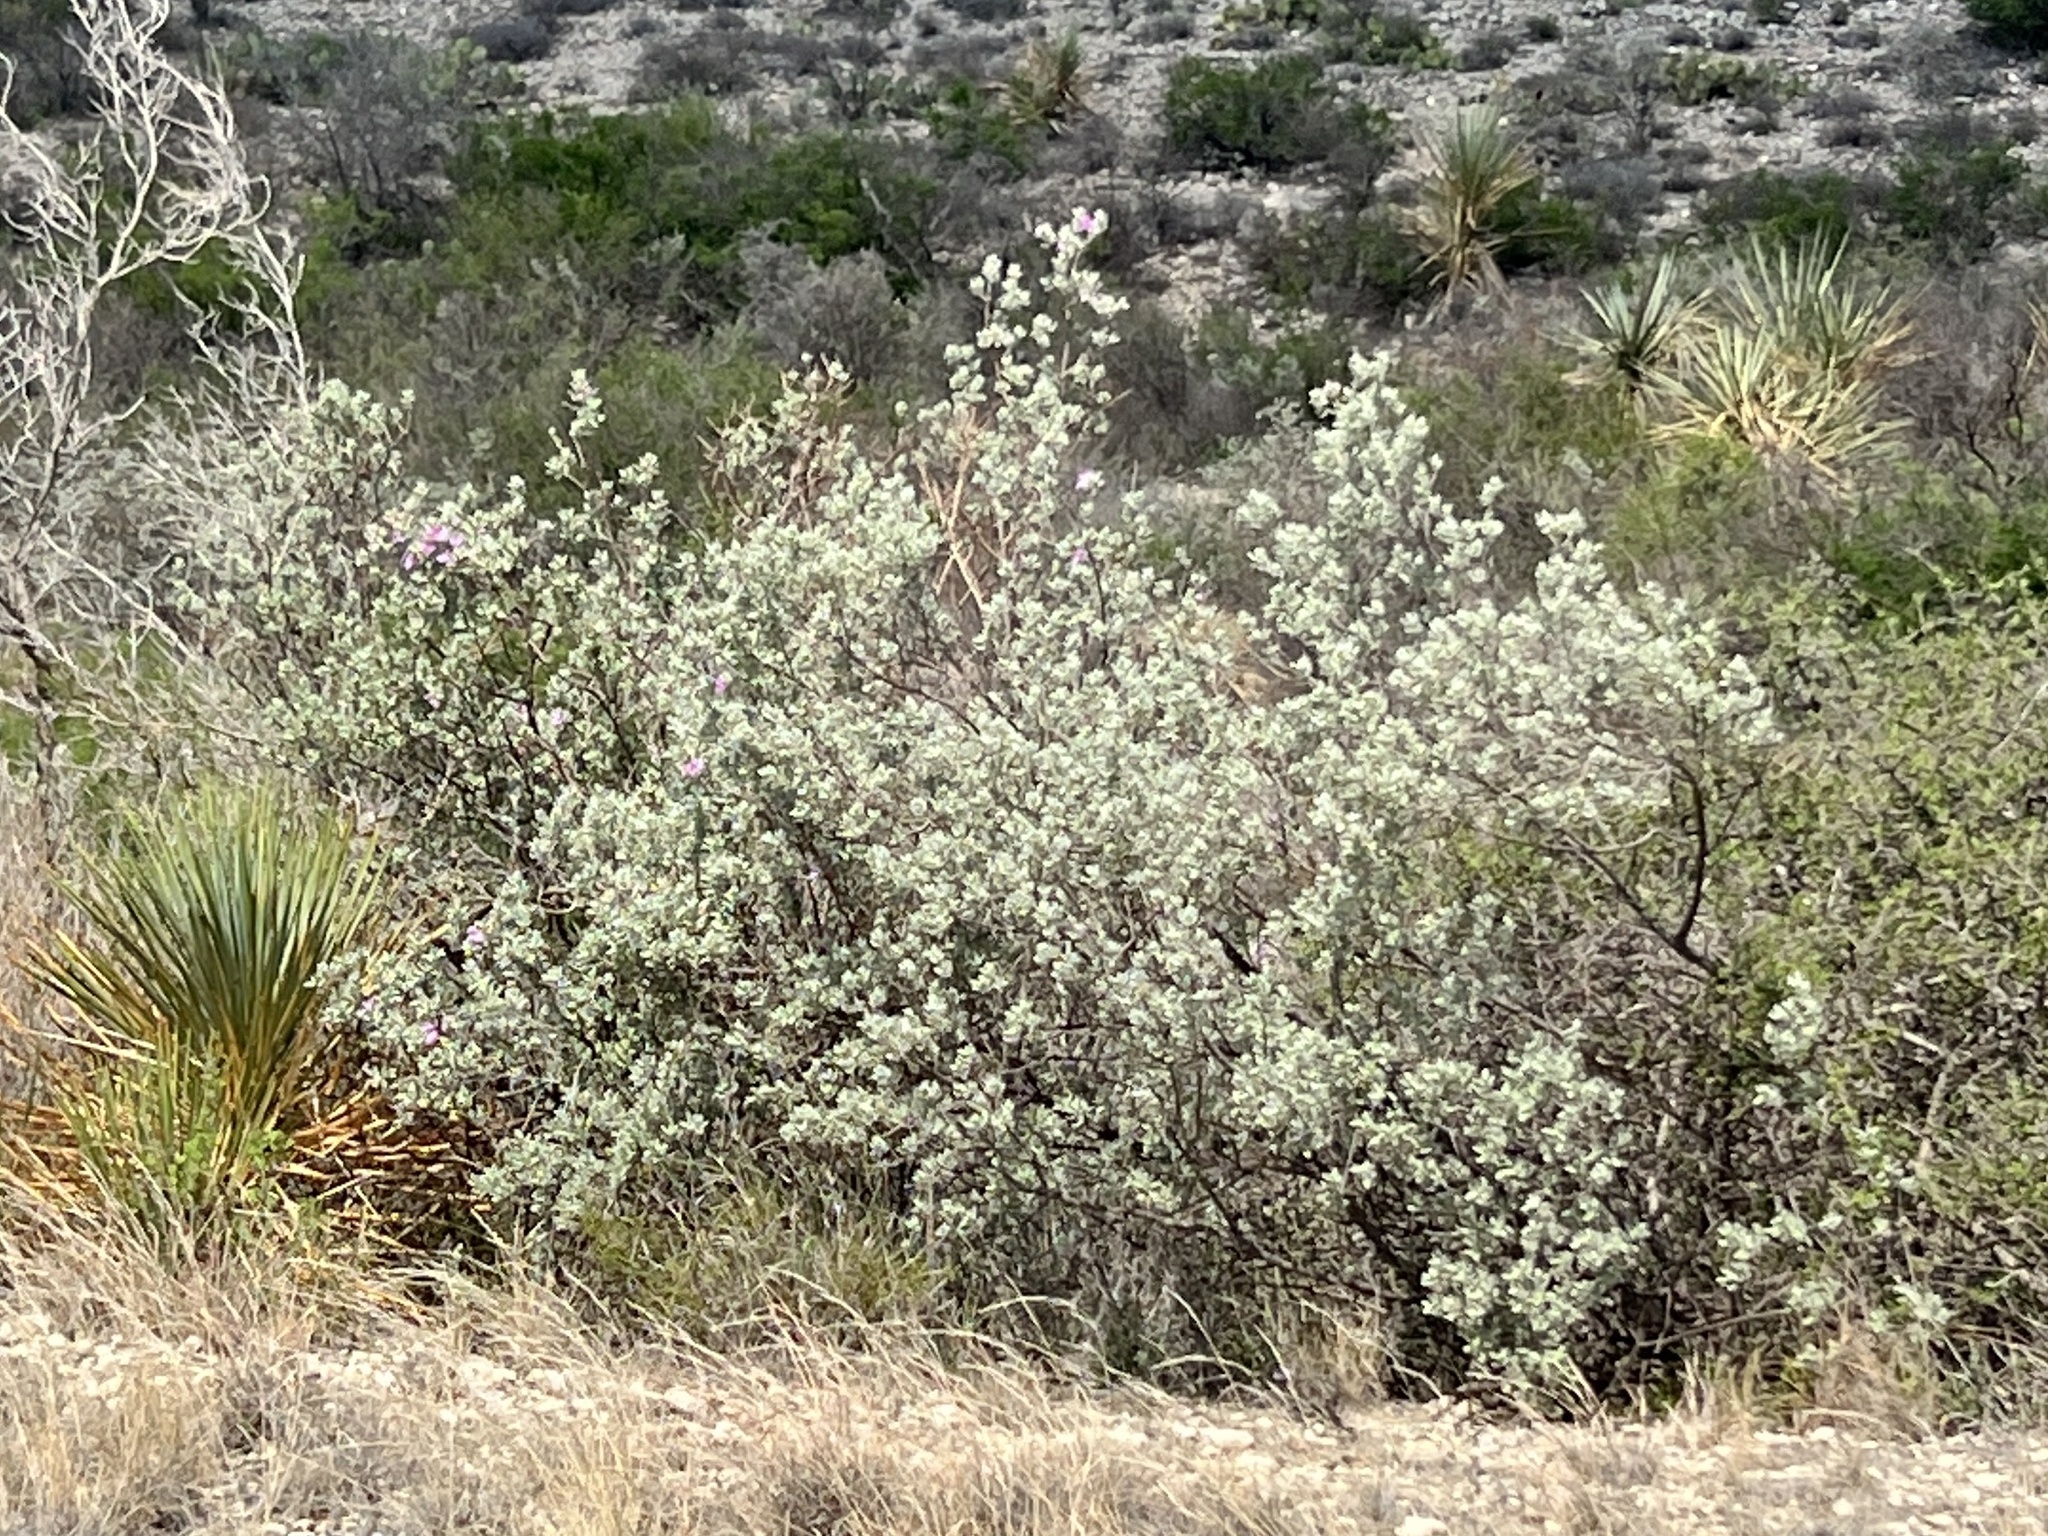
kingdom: Plantae
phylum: Tracheophyta
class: Magnoliopsida
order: Lamiales
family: Scrophulariaceae
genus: Leucophyllum
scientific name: Leucophyllum frutescens
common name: Texas silverleaf
